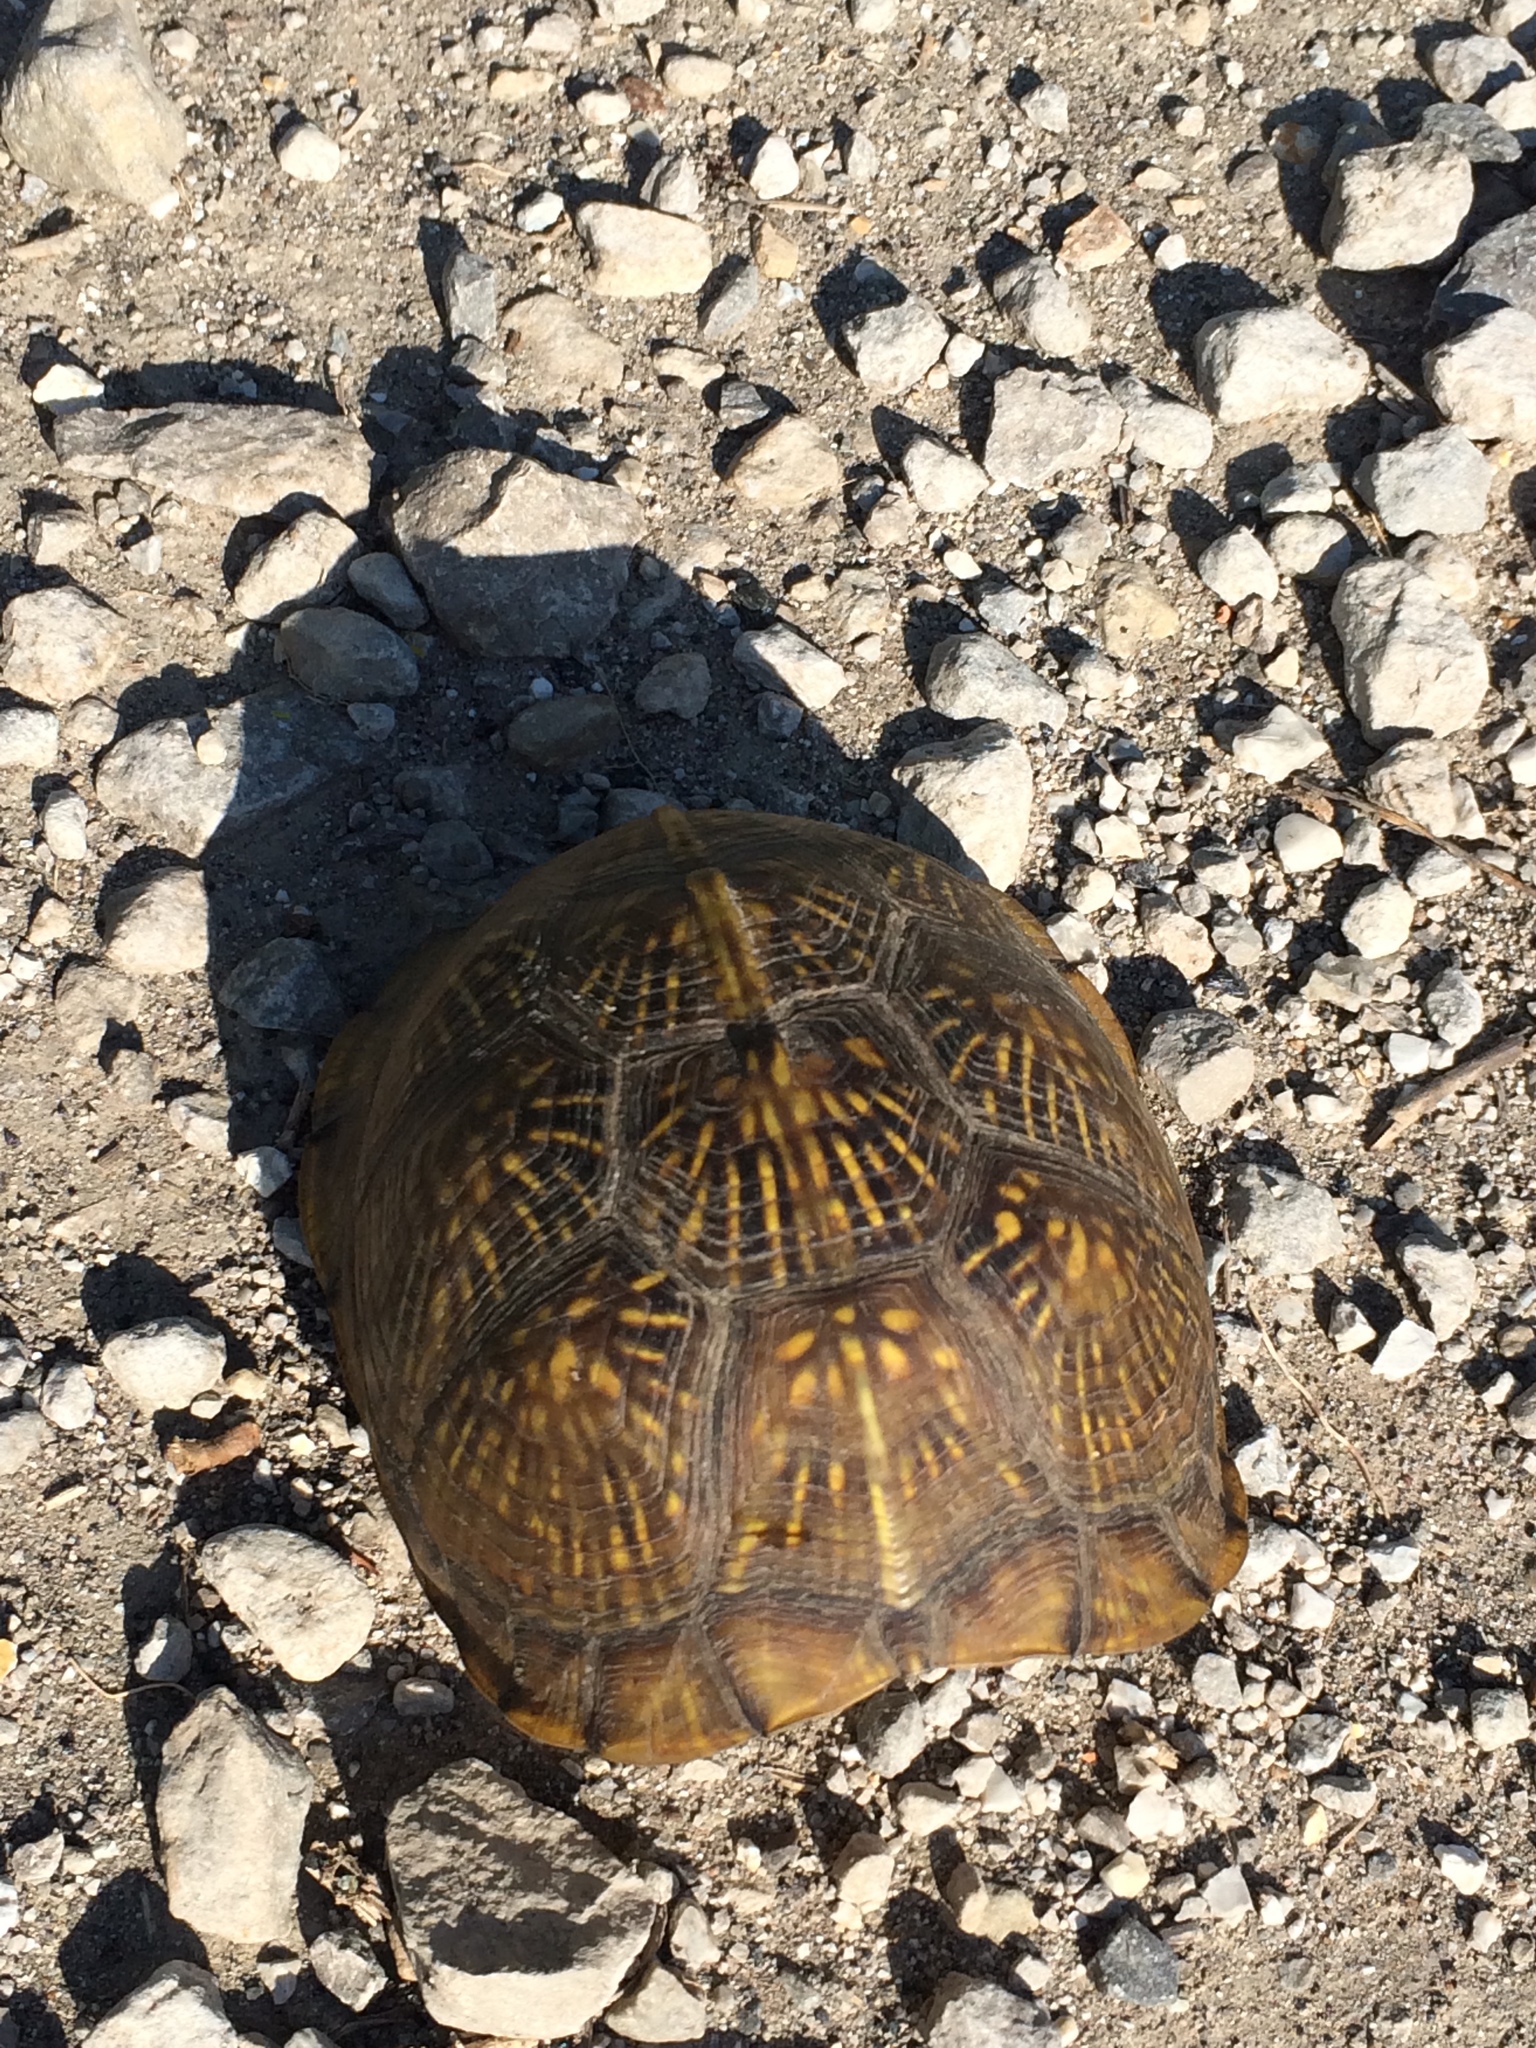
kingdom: Animalia
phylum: Chordata
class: Testudines
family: Emydidae
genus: Terrapene
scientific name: Terrapene carolina
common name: Common box turtle
